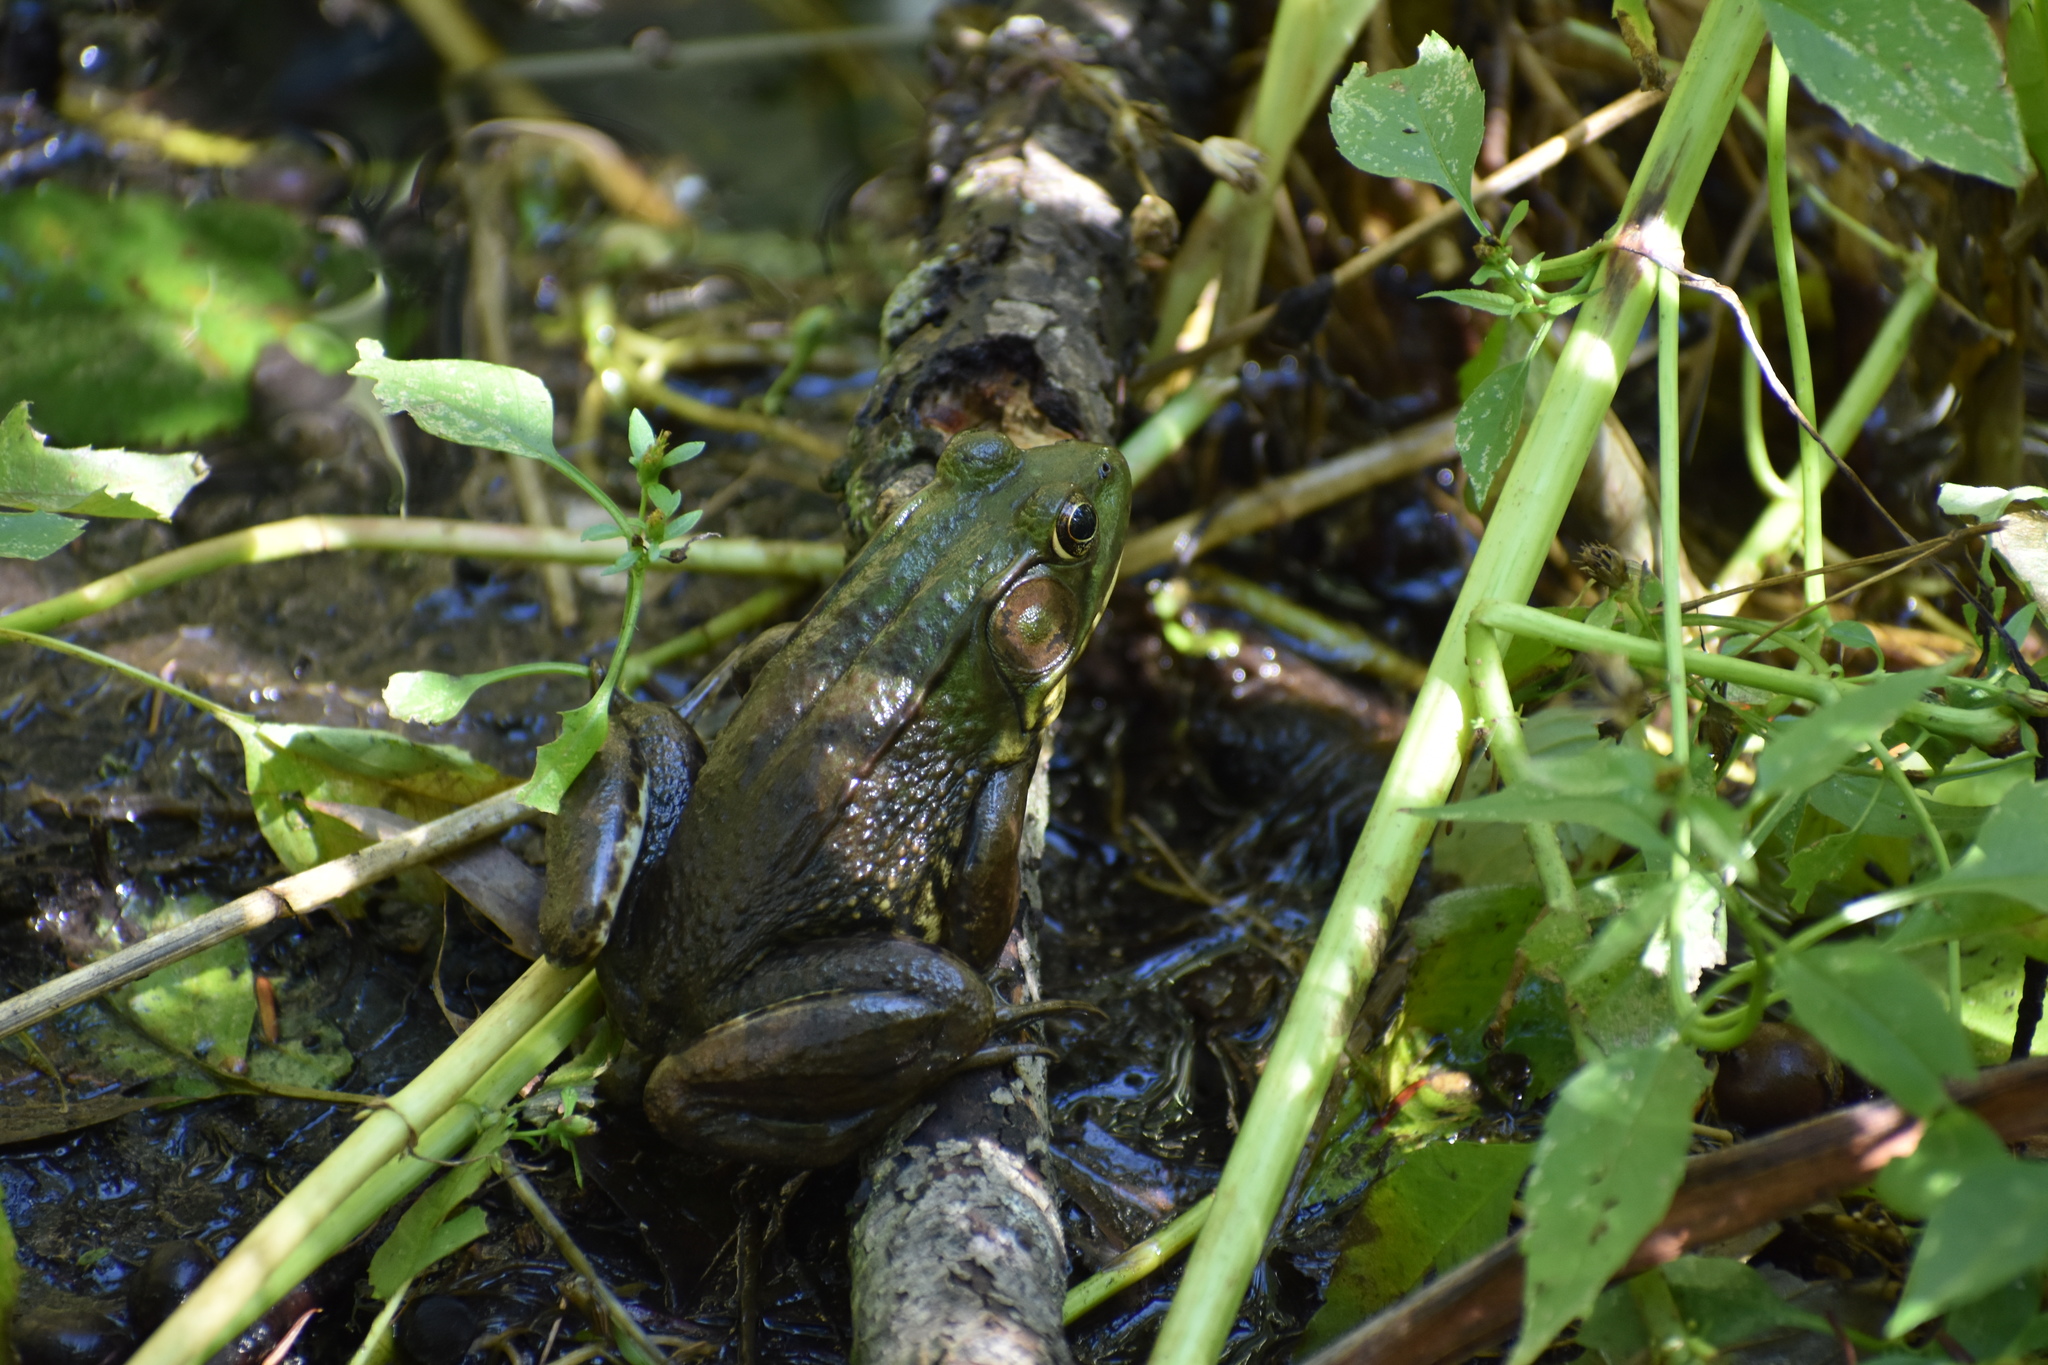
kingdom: Animalia
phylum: Chordata
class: Amphibia
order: Anura
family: Ranidae
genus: Lithobates
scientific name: Lithobates clamitans
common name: Green frog
